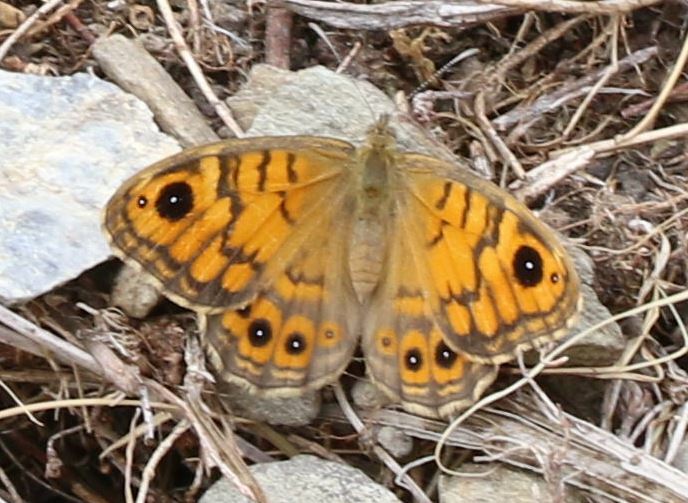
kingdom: Animalia
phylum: Arthropoda
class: Insecta
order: Lepidoptera
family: Nymphalidae
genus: Pararge
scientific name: Pararge Lasiommata megera
